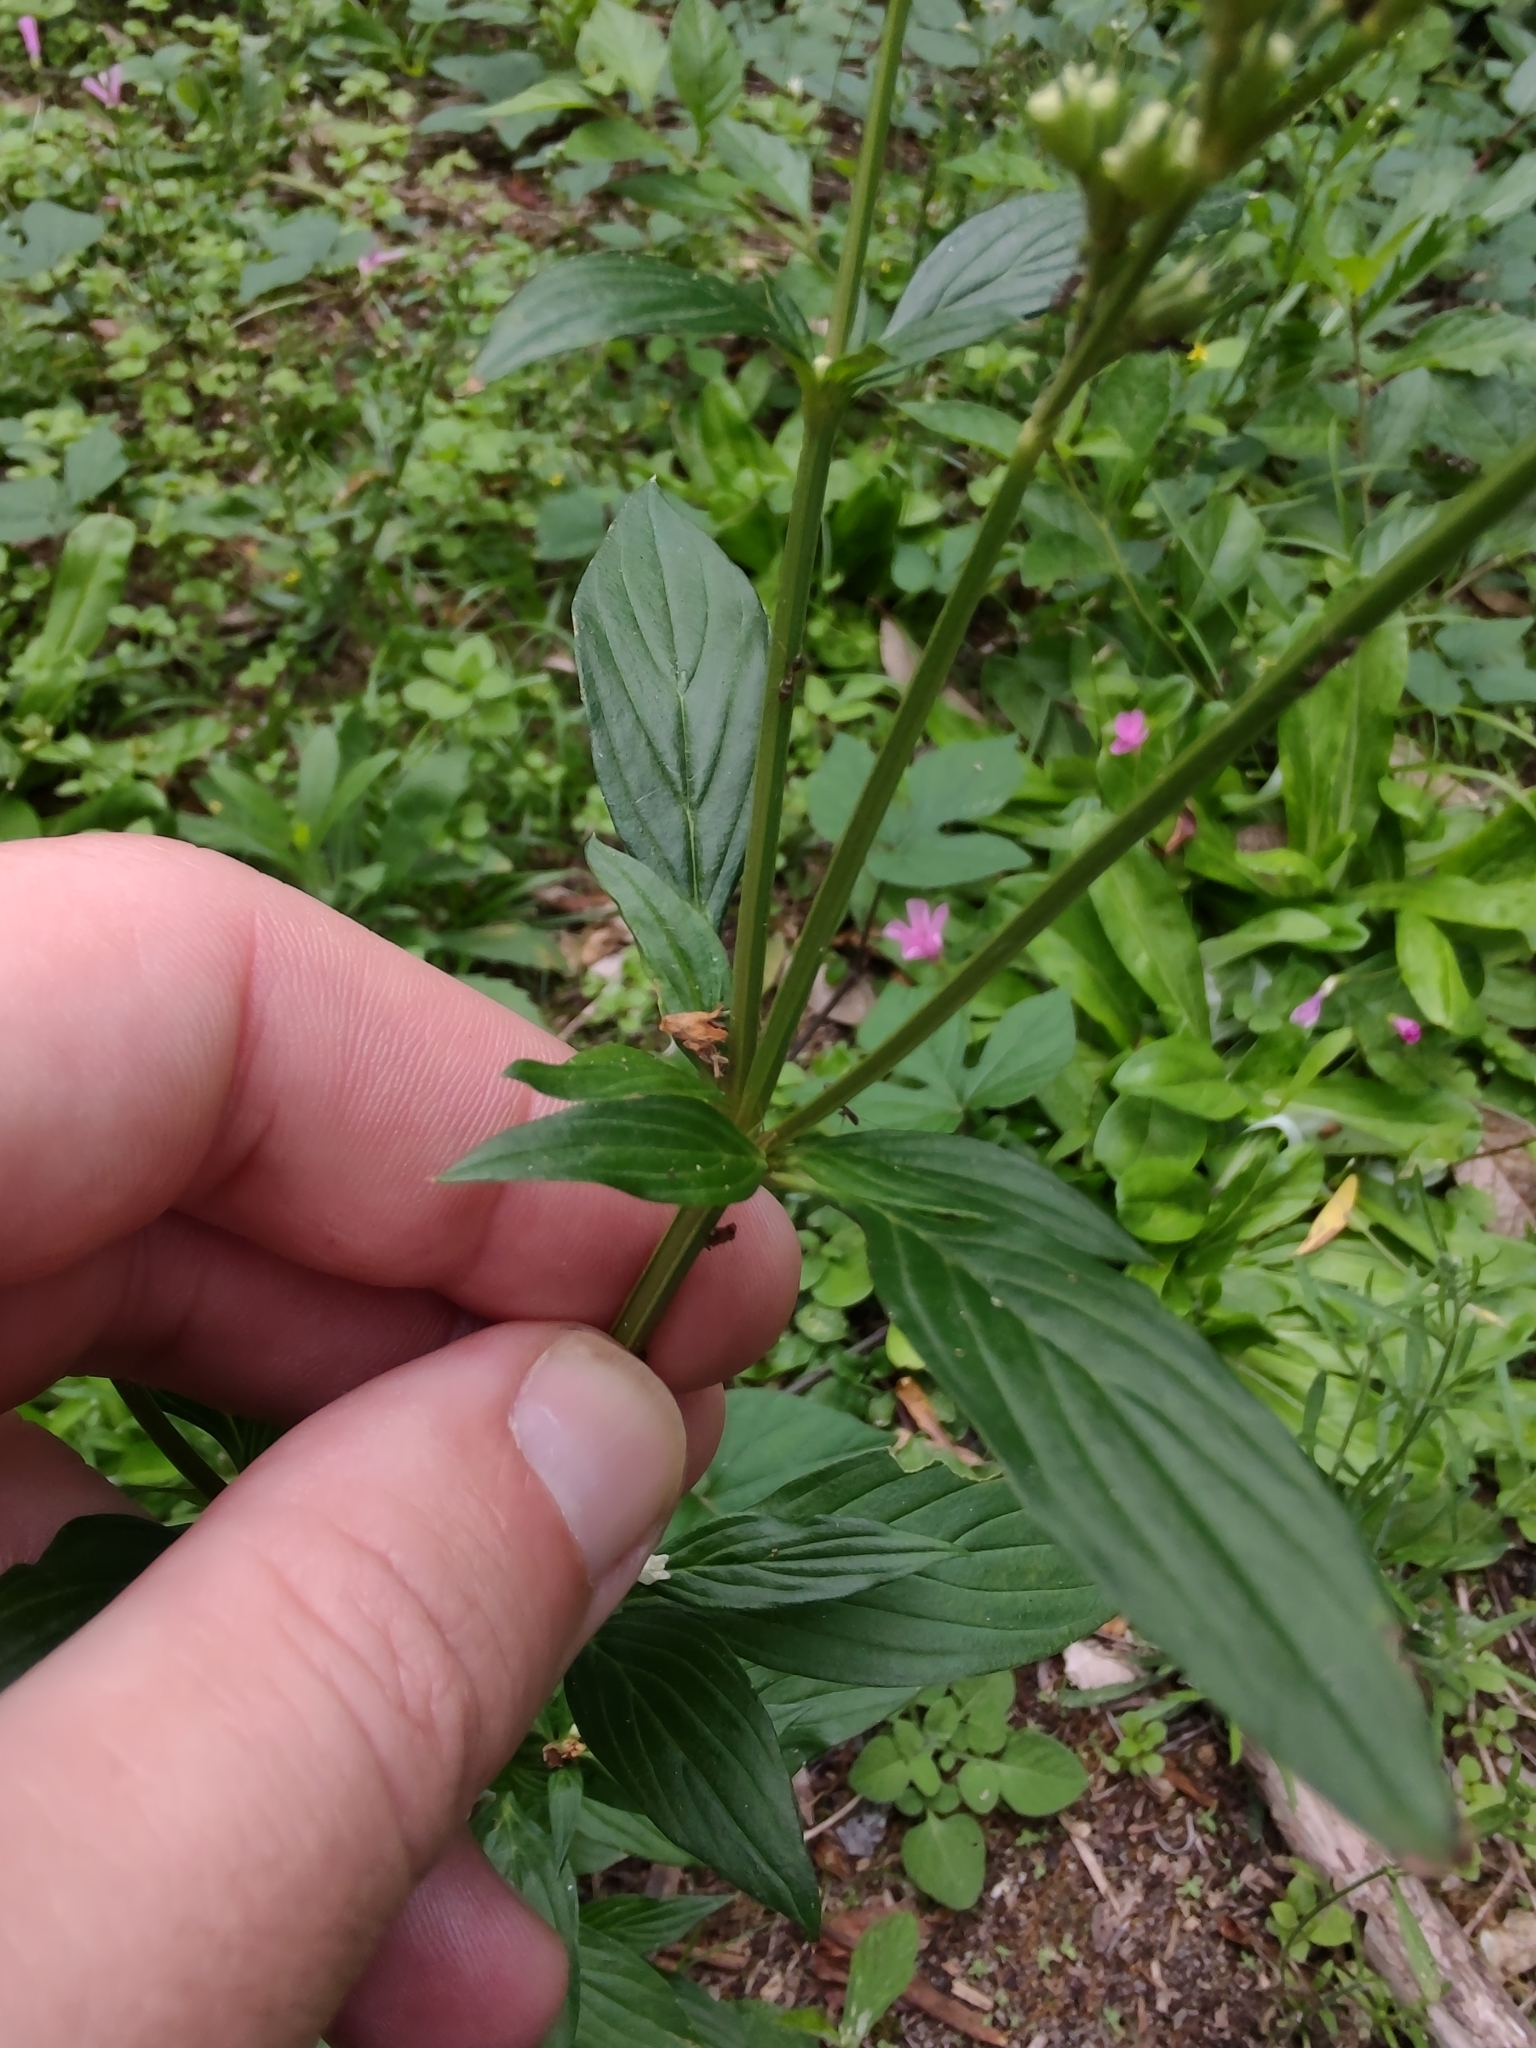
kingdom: Plantae
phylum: Tracheophyta
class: Magnoliopsida
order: Gentianales
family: Rubiaceae
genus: Galianthe
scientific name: Galianthe laxa
